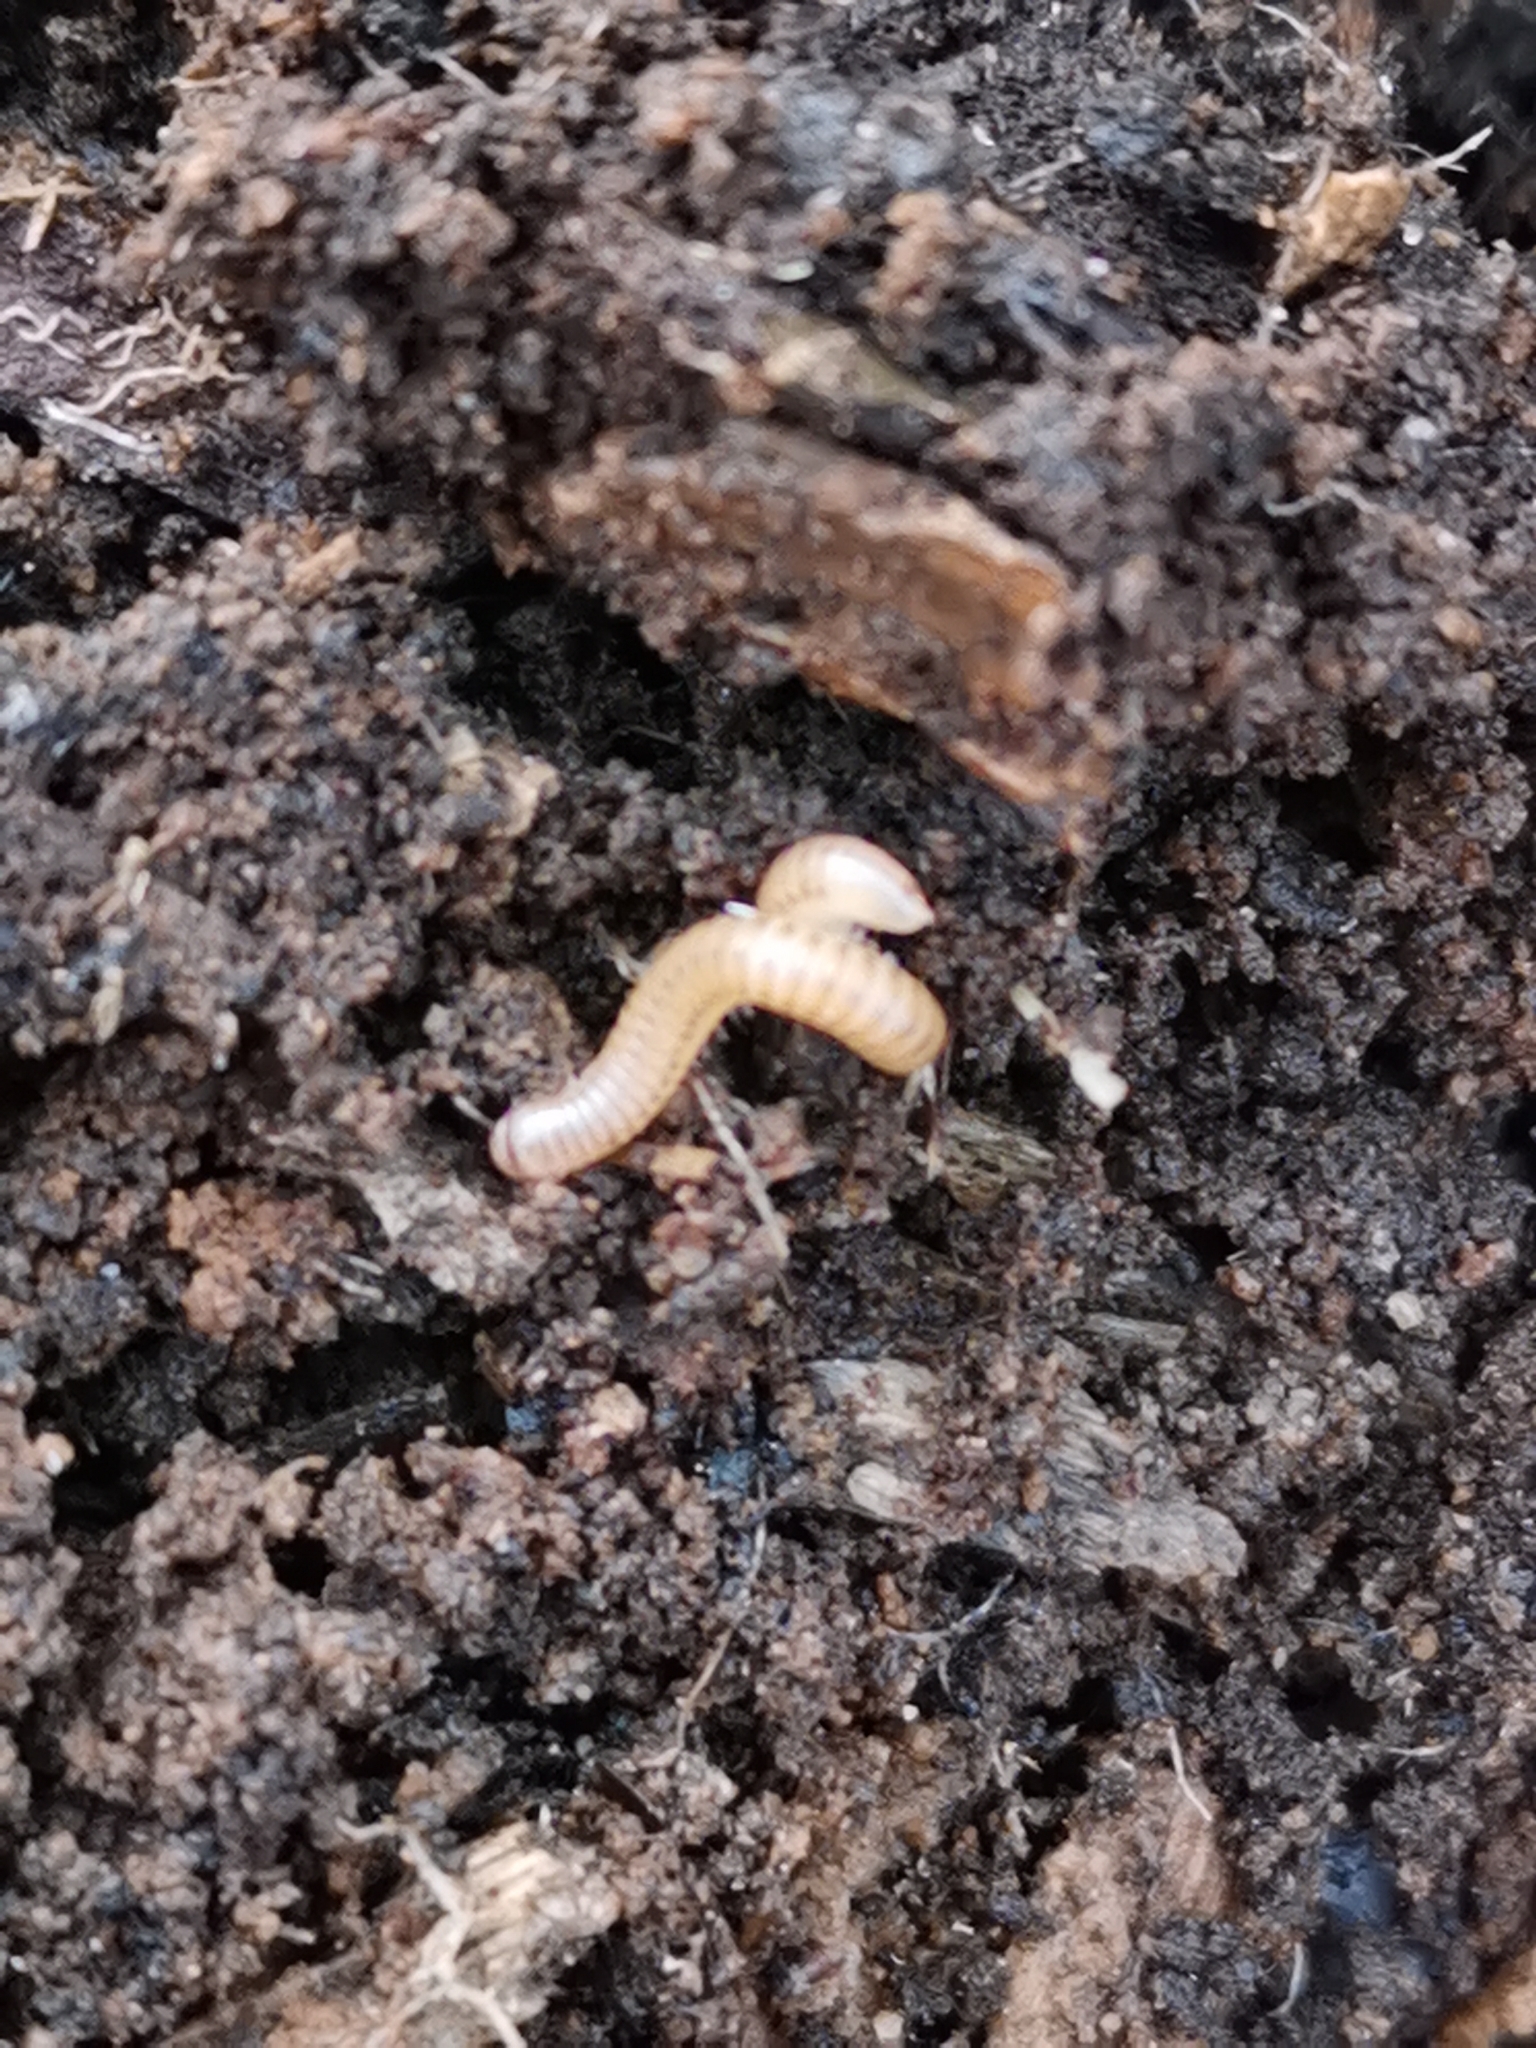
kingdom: Animalia
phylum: Arthropoda
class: Diplopoda
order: Julida
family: Julidae
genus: Cylindroiulus
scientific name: Cylindroiulus punctatus
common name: Blunt-tailed millipede
